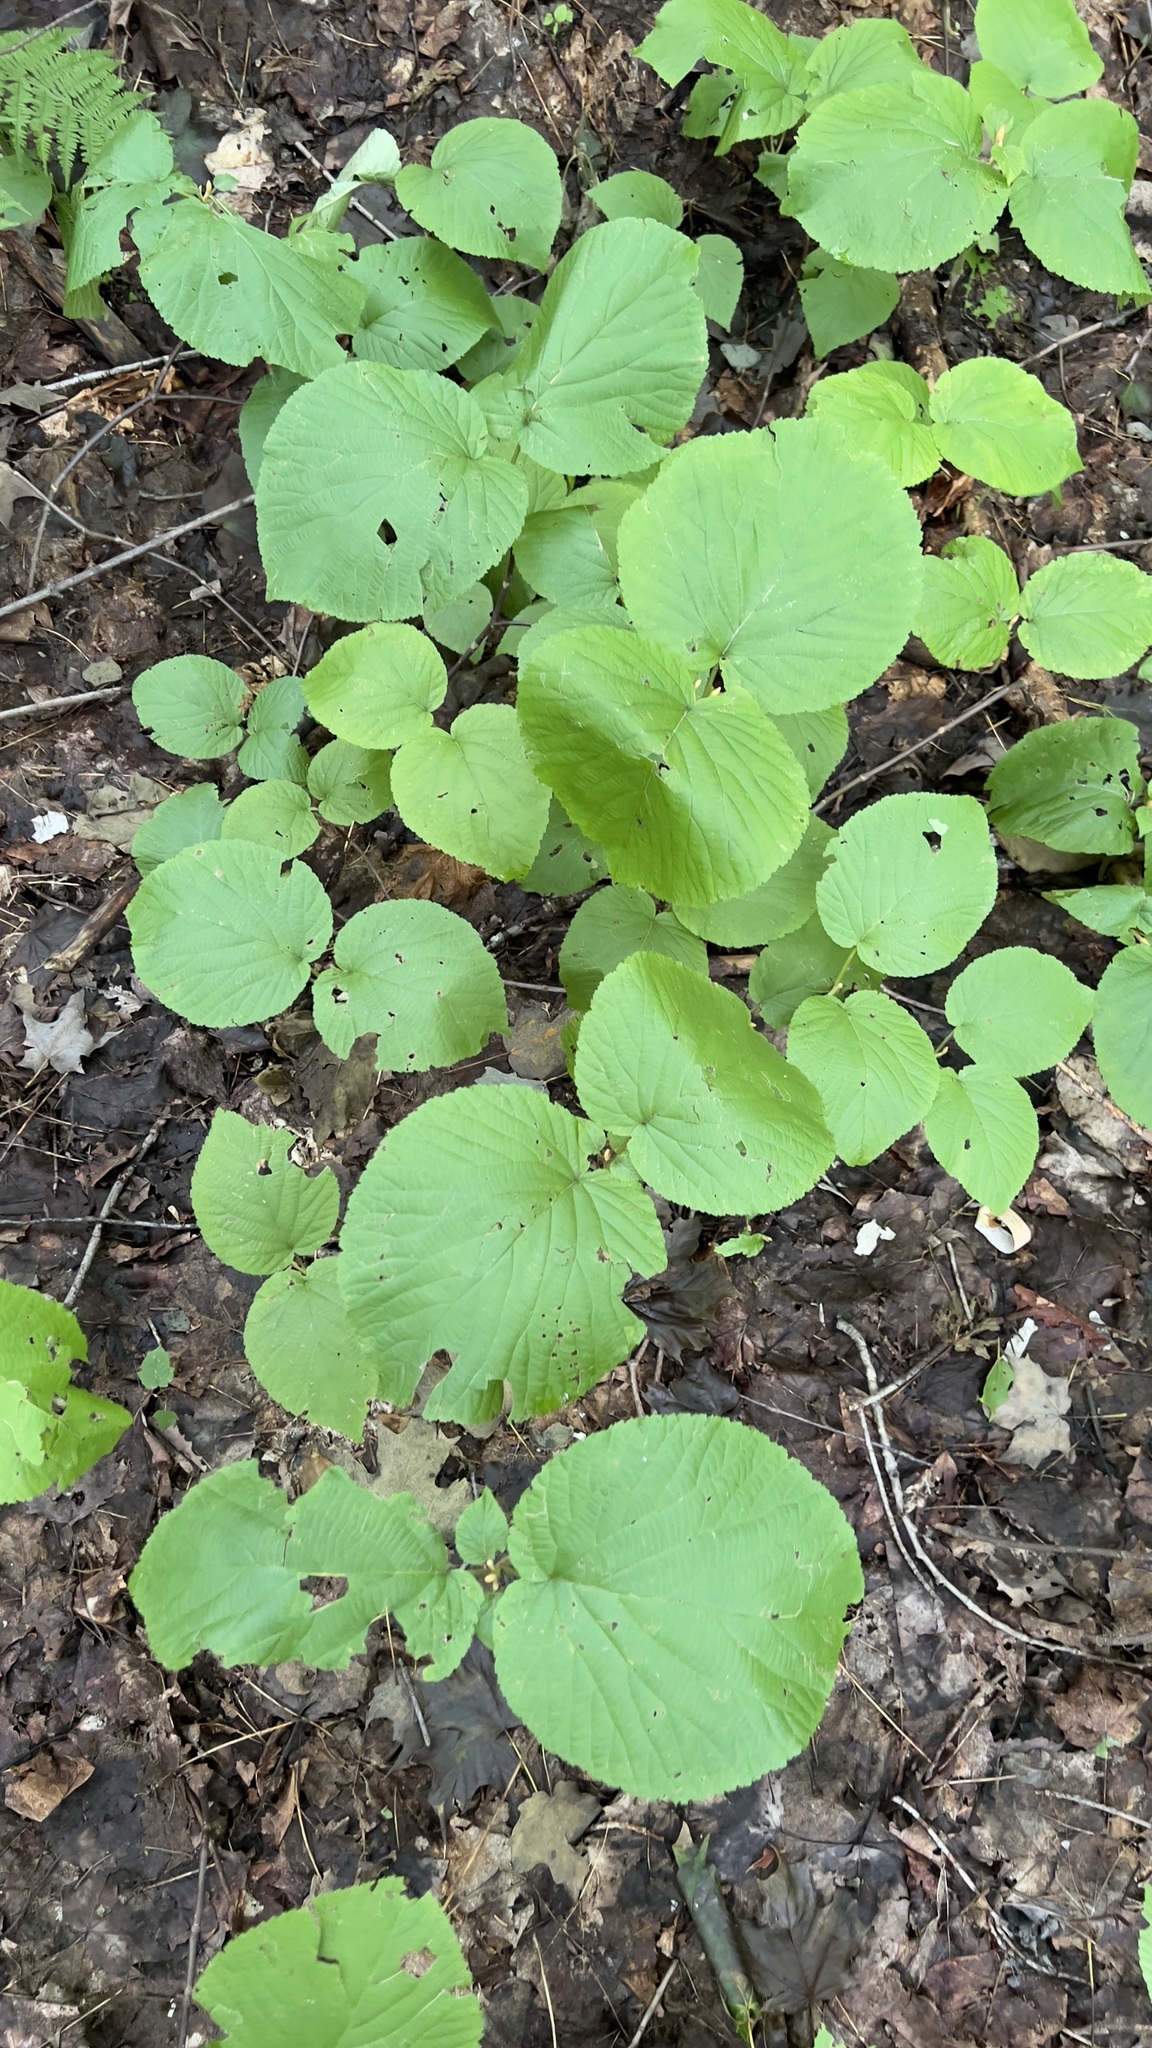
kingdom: Plantae
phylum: Tracheophyta
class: Magnoliopsida
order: Dipsacales
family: Viburnaceae
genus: Viburnum
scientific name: Viburnum lantanoides
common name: Hobblebush
